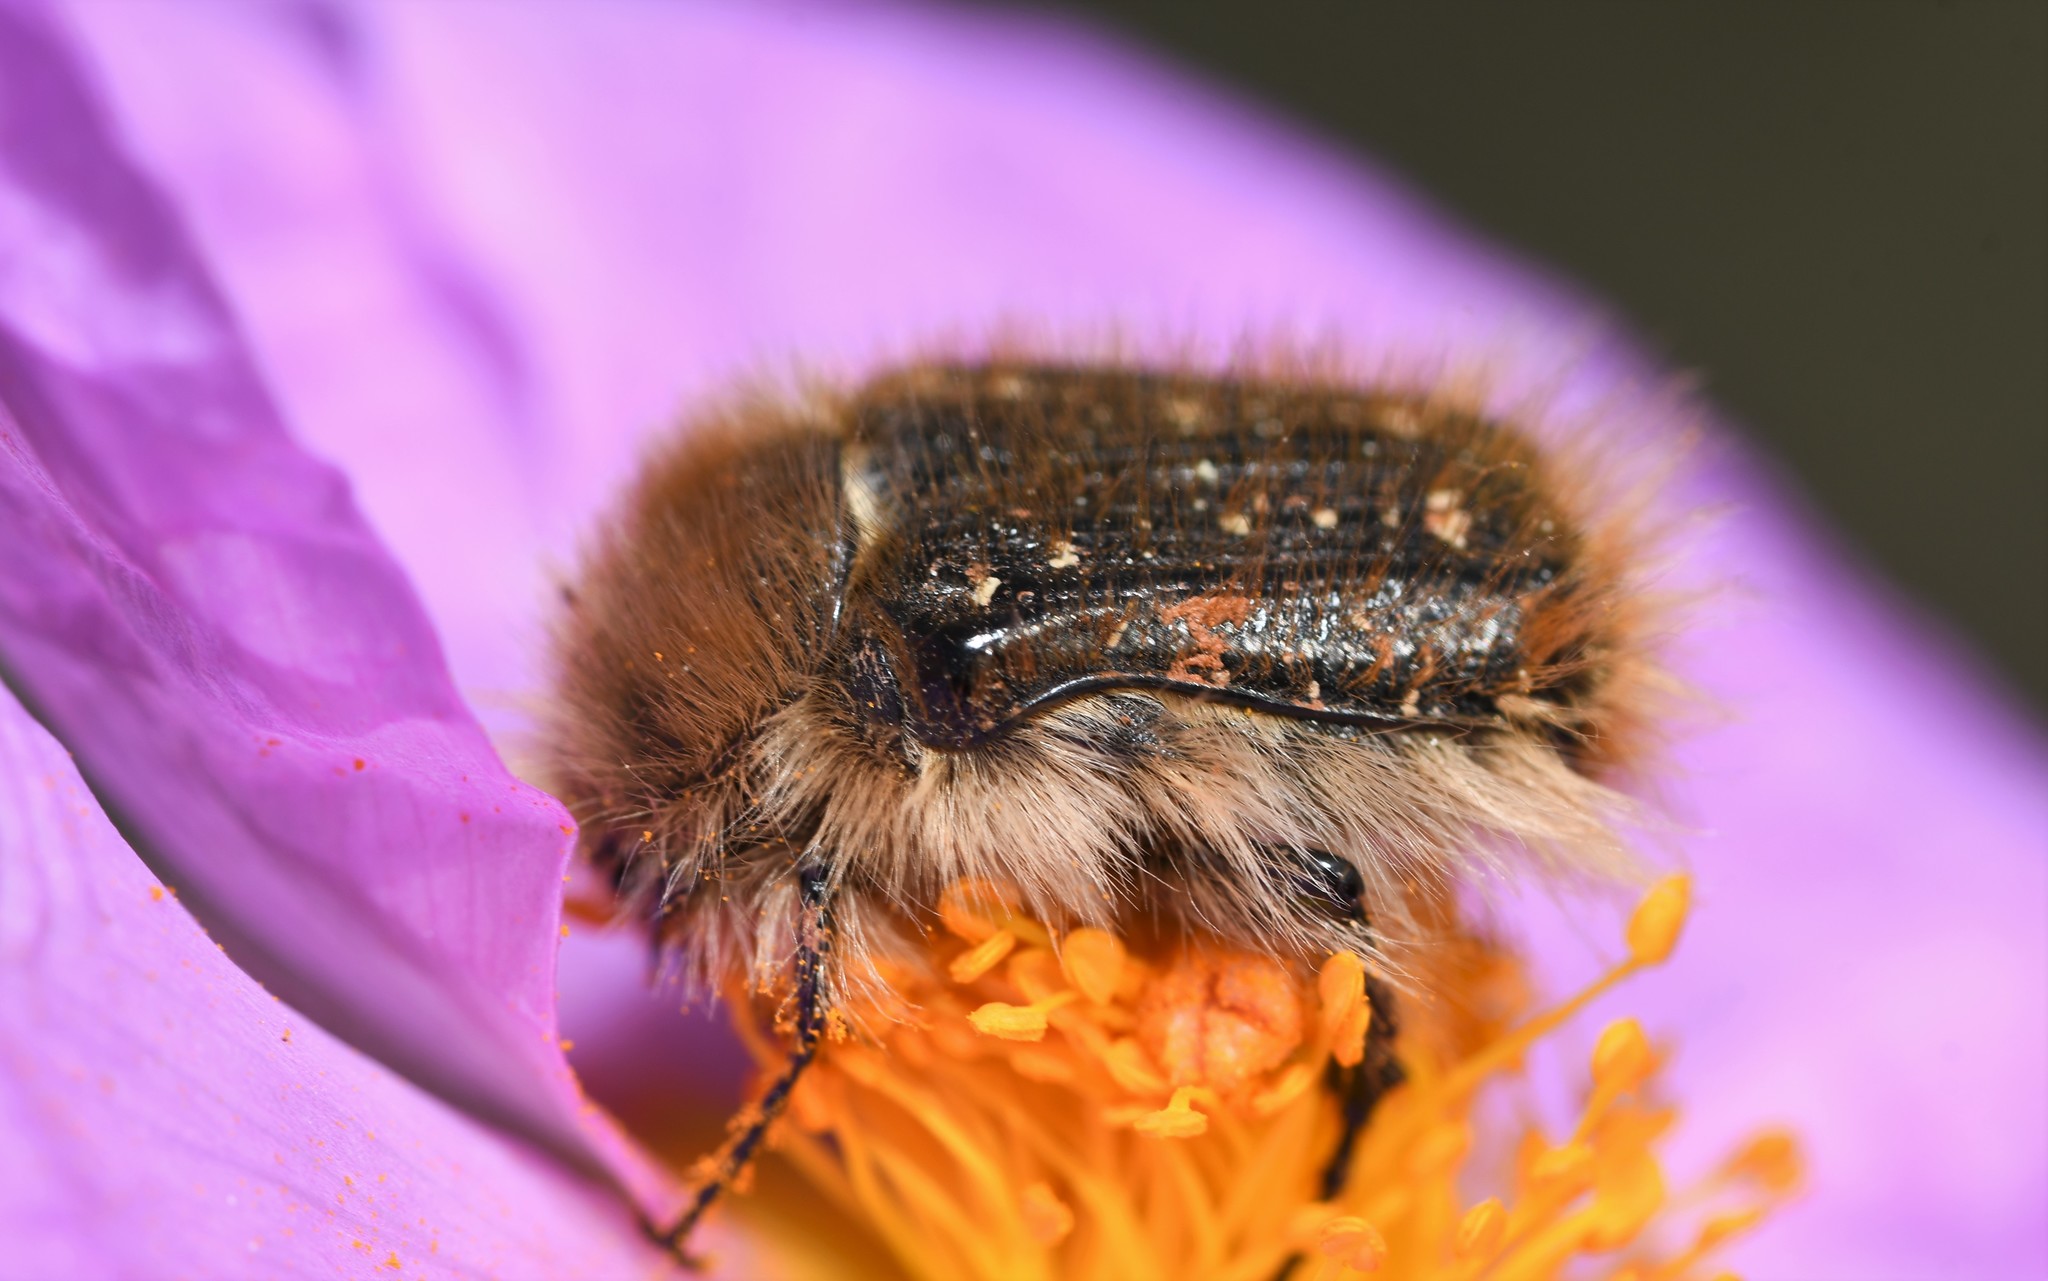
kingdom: Animalia
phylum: Arthropoda
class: Insecta
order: Coleoptera
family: Scarabaeidae
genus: Tropinota
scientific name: Tropinota squalida
